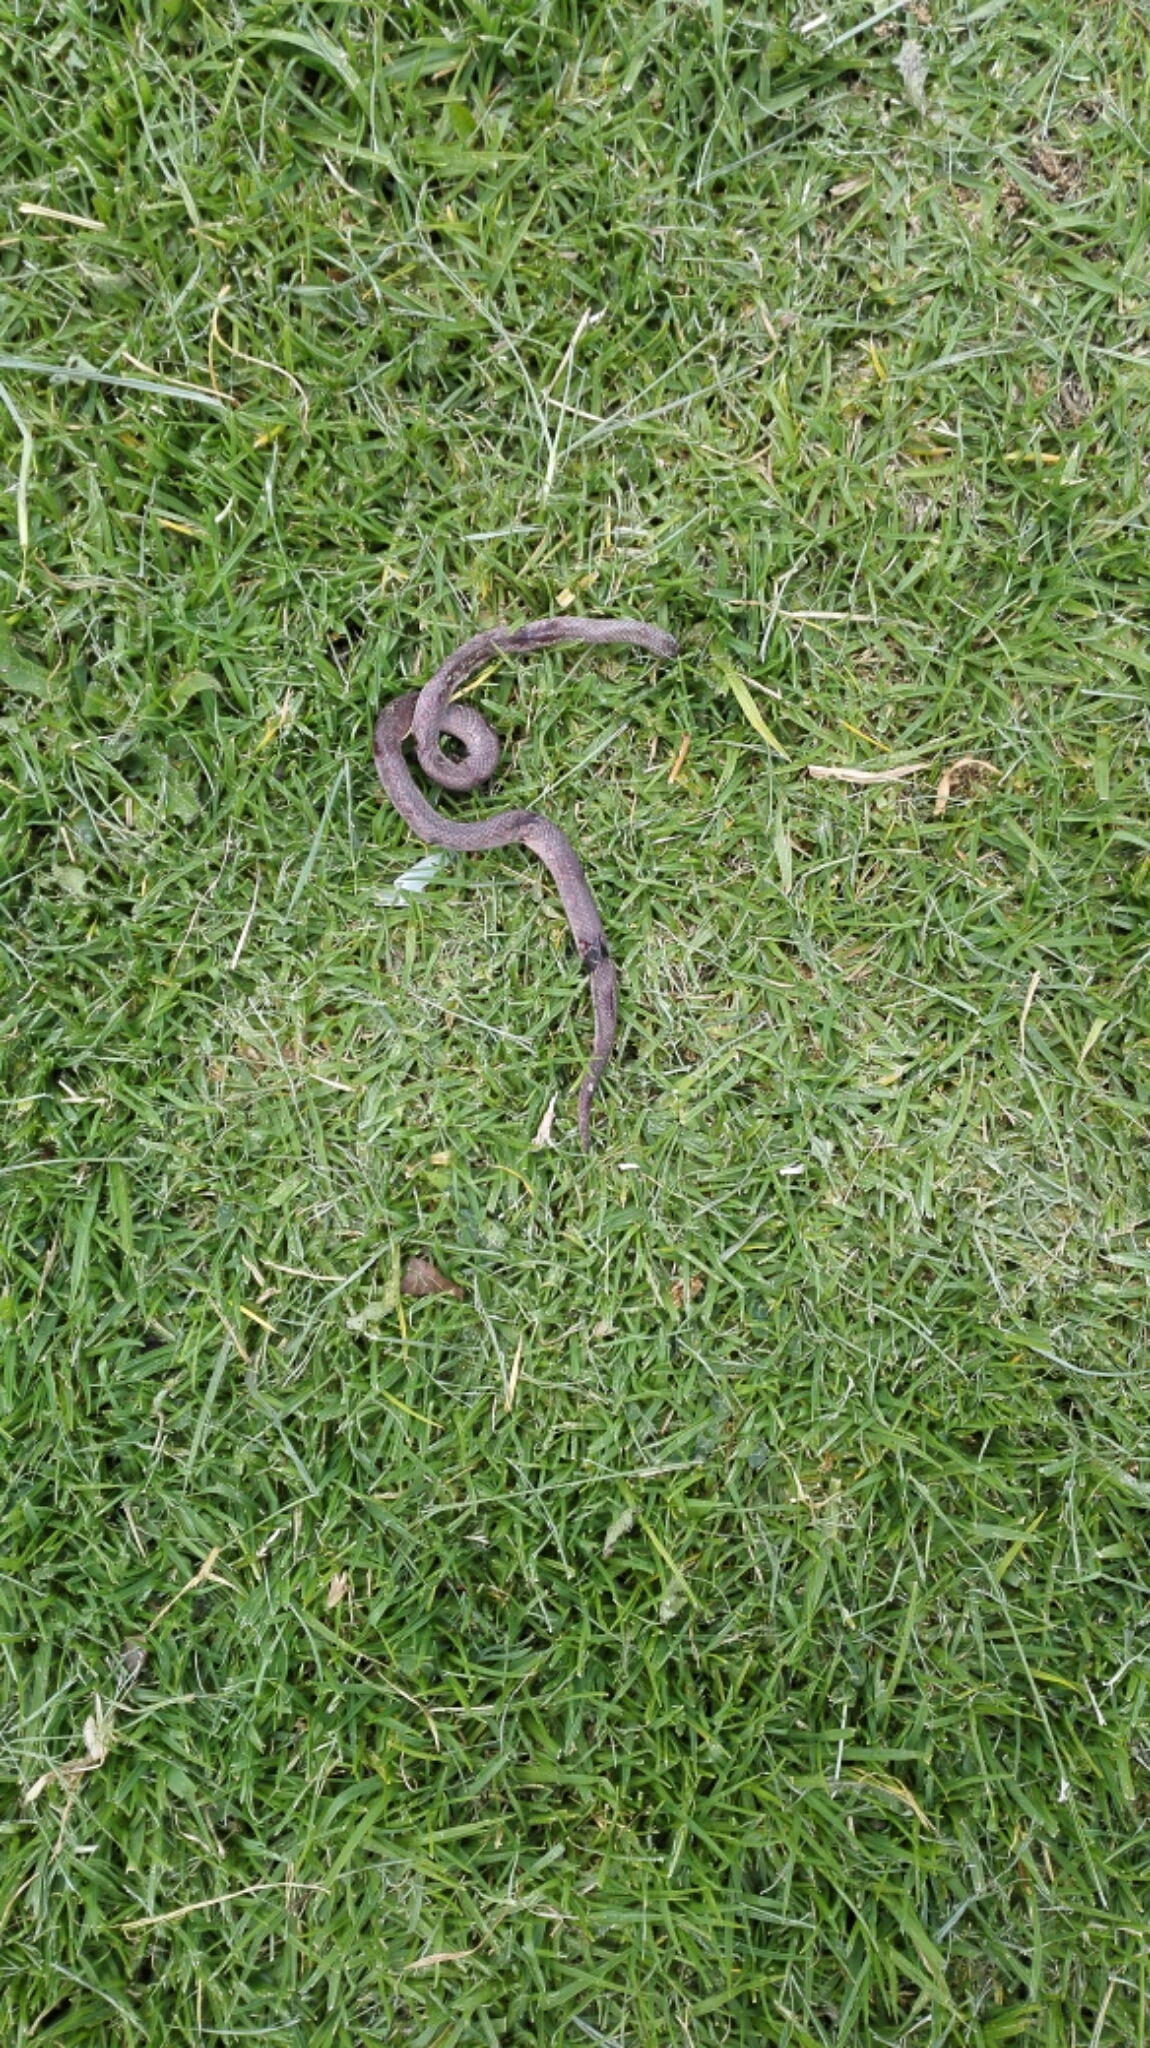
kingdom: Animalia
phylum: Chordata
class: Squamata
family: Colubridae
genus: Atractus
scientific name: Atractus crassicaudatus
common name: Thickhead ground snake
